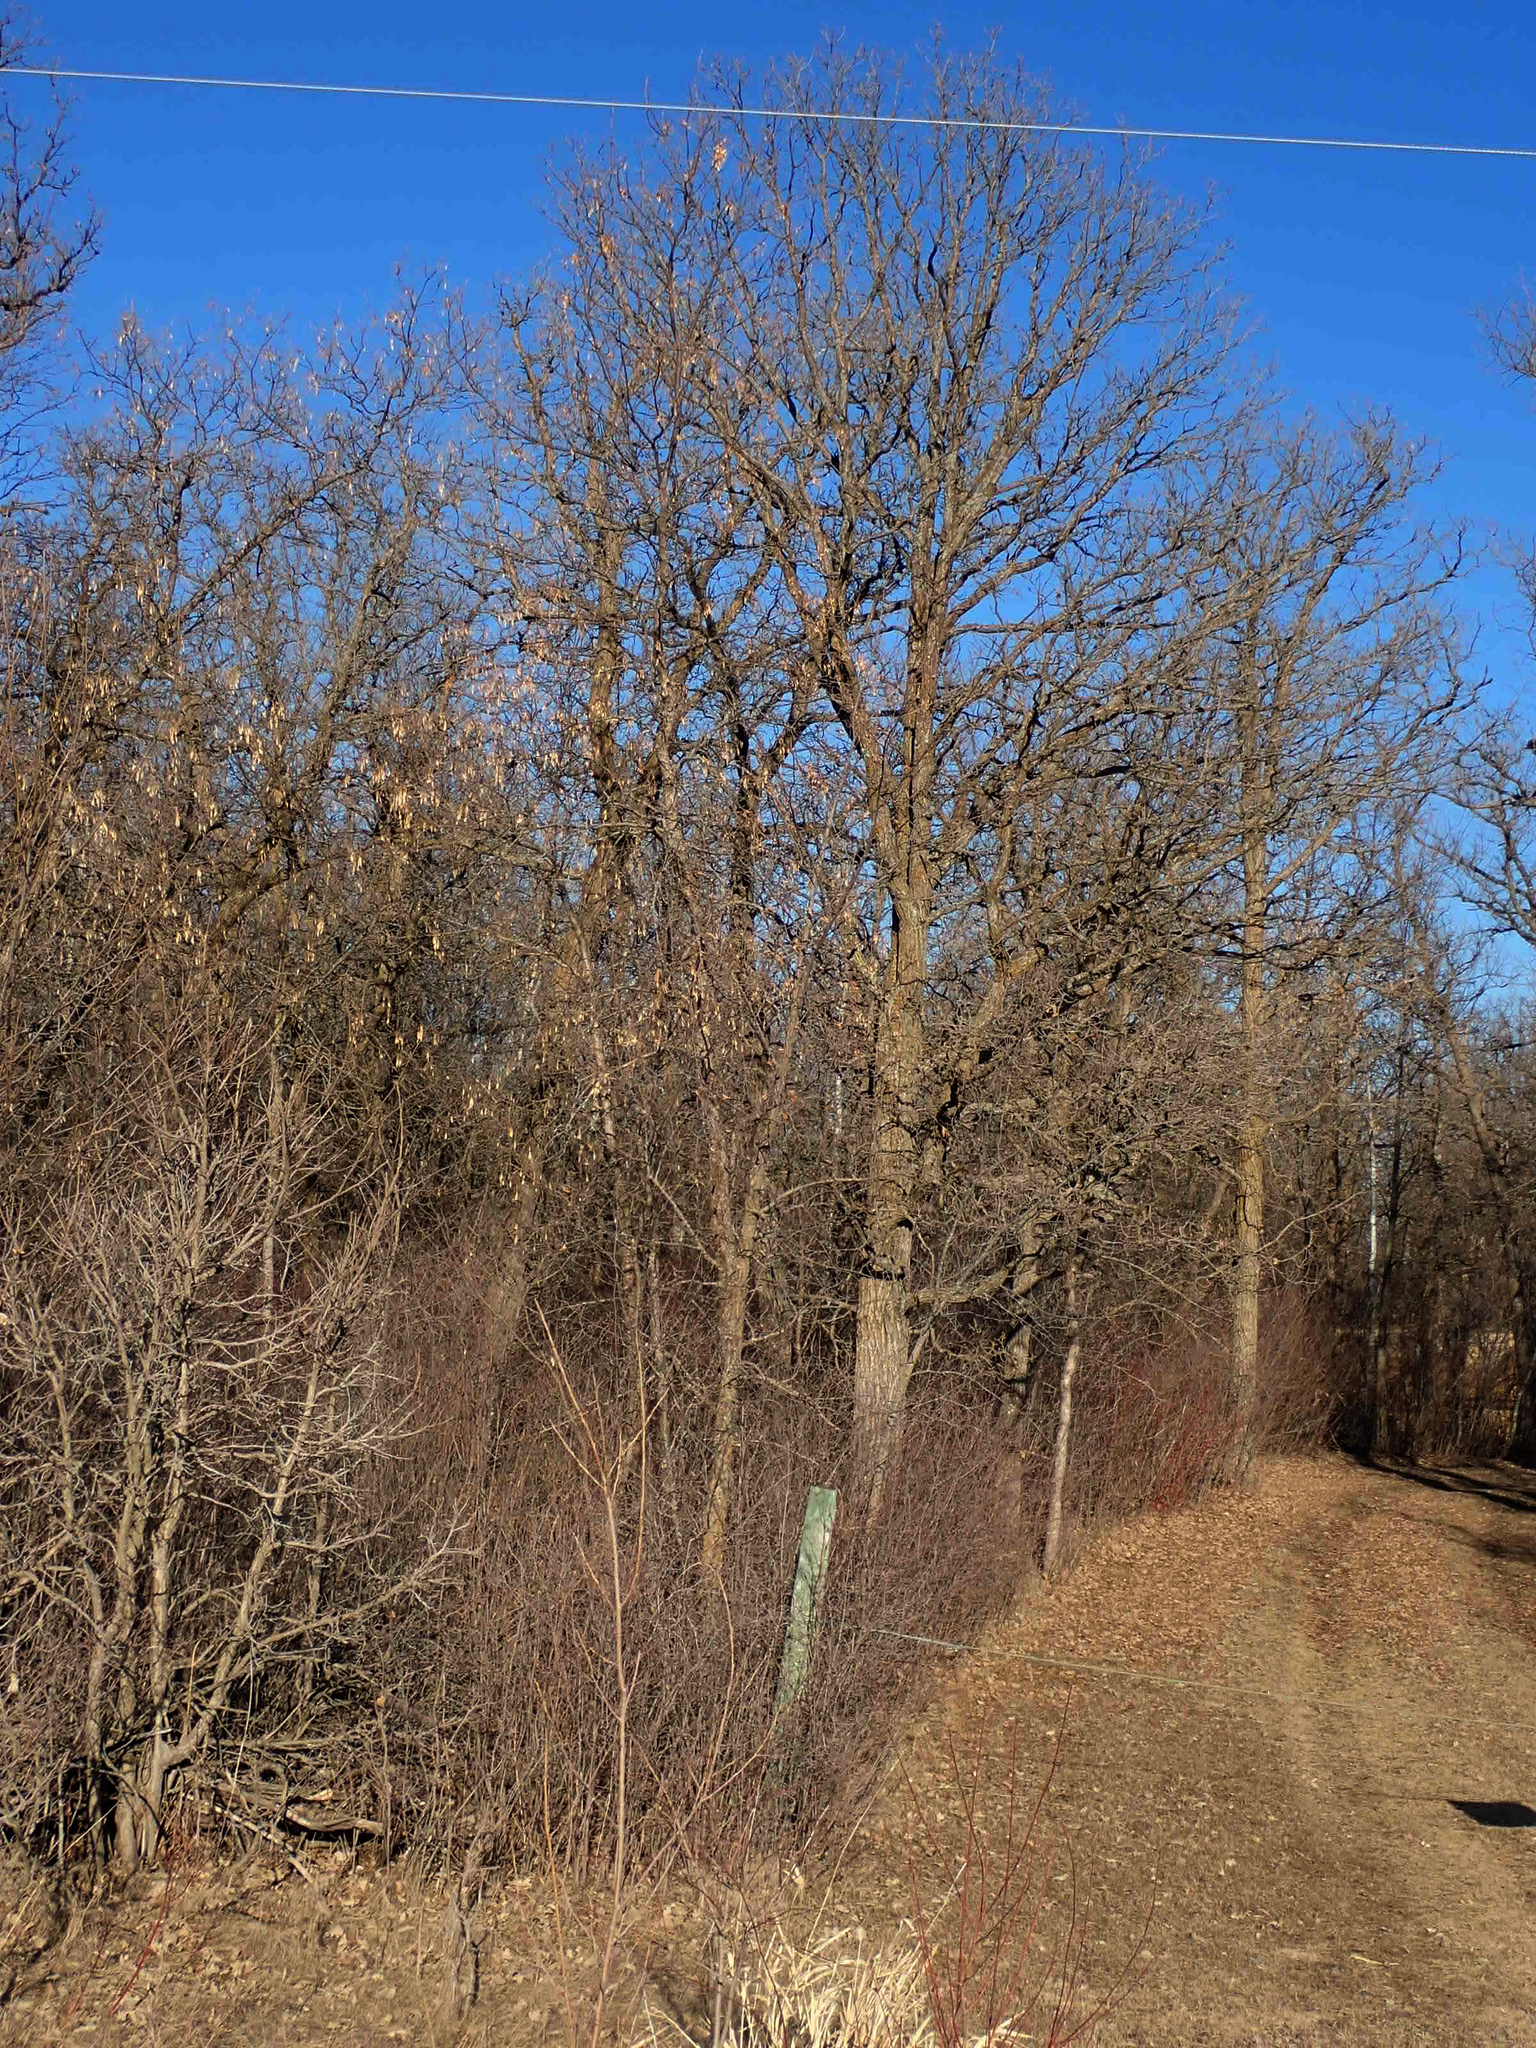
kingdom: Plantae
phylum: Tracheophyta
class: Magnoliopsida
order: Fagales
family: Fagaceae
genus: Quercus
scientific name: Quercus macrocarpa
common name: Bur oak
